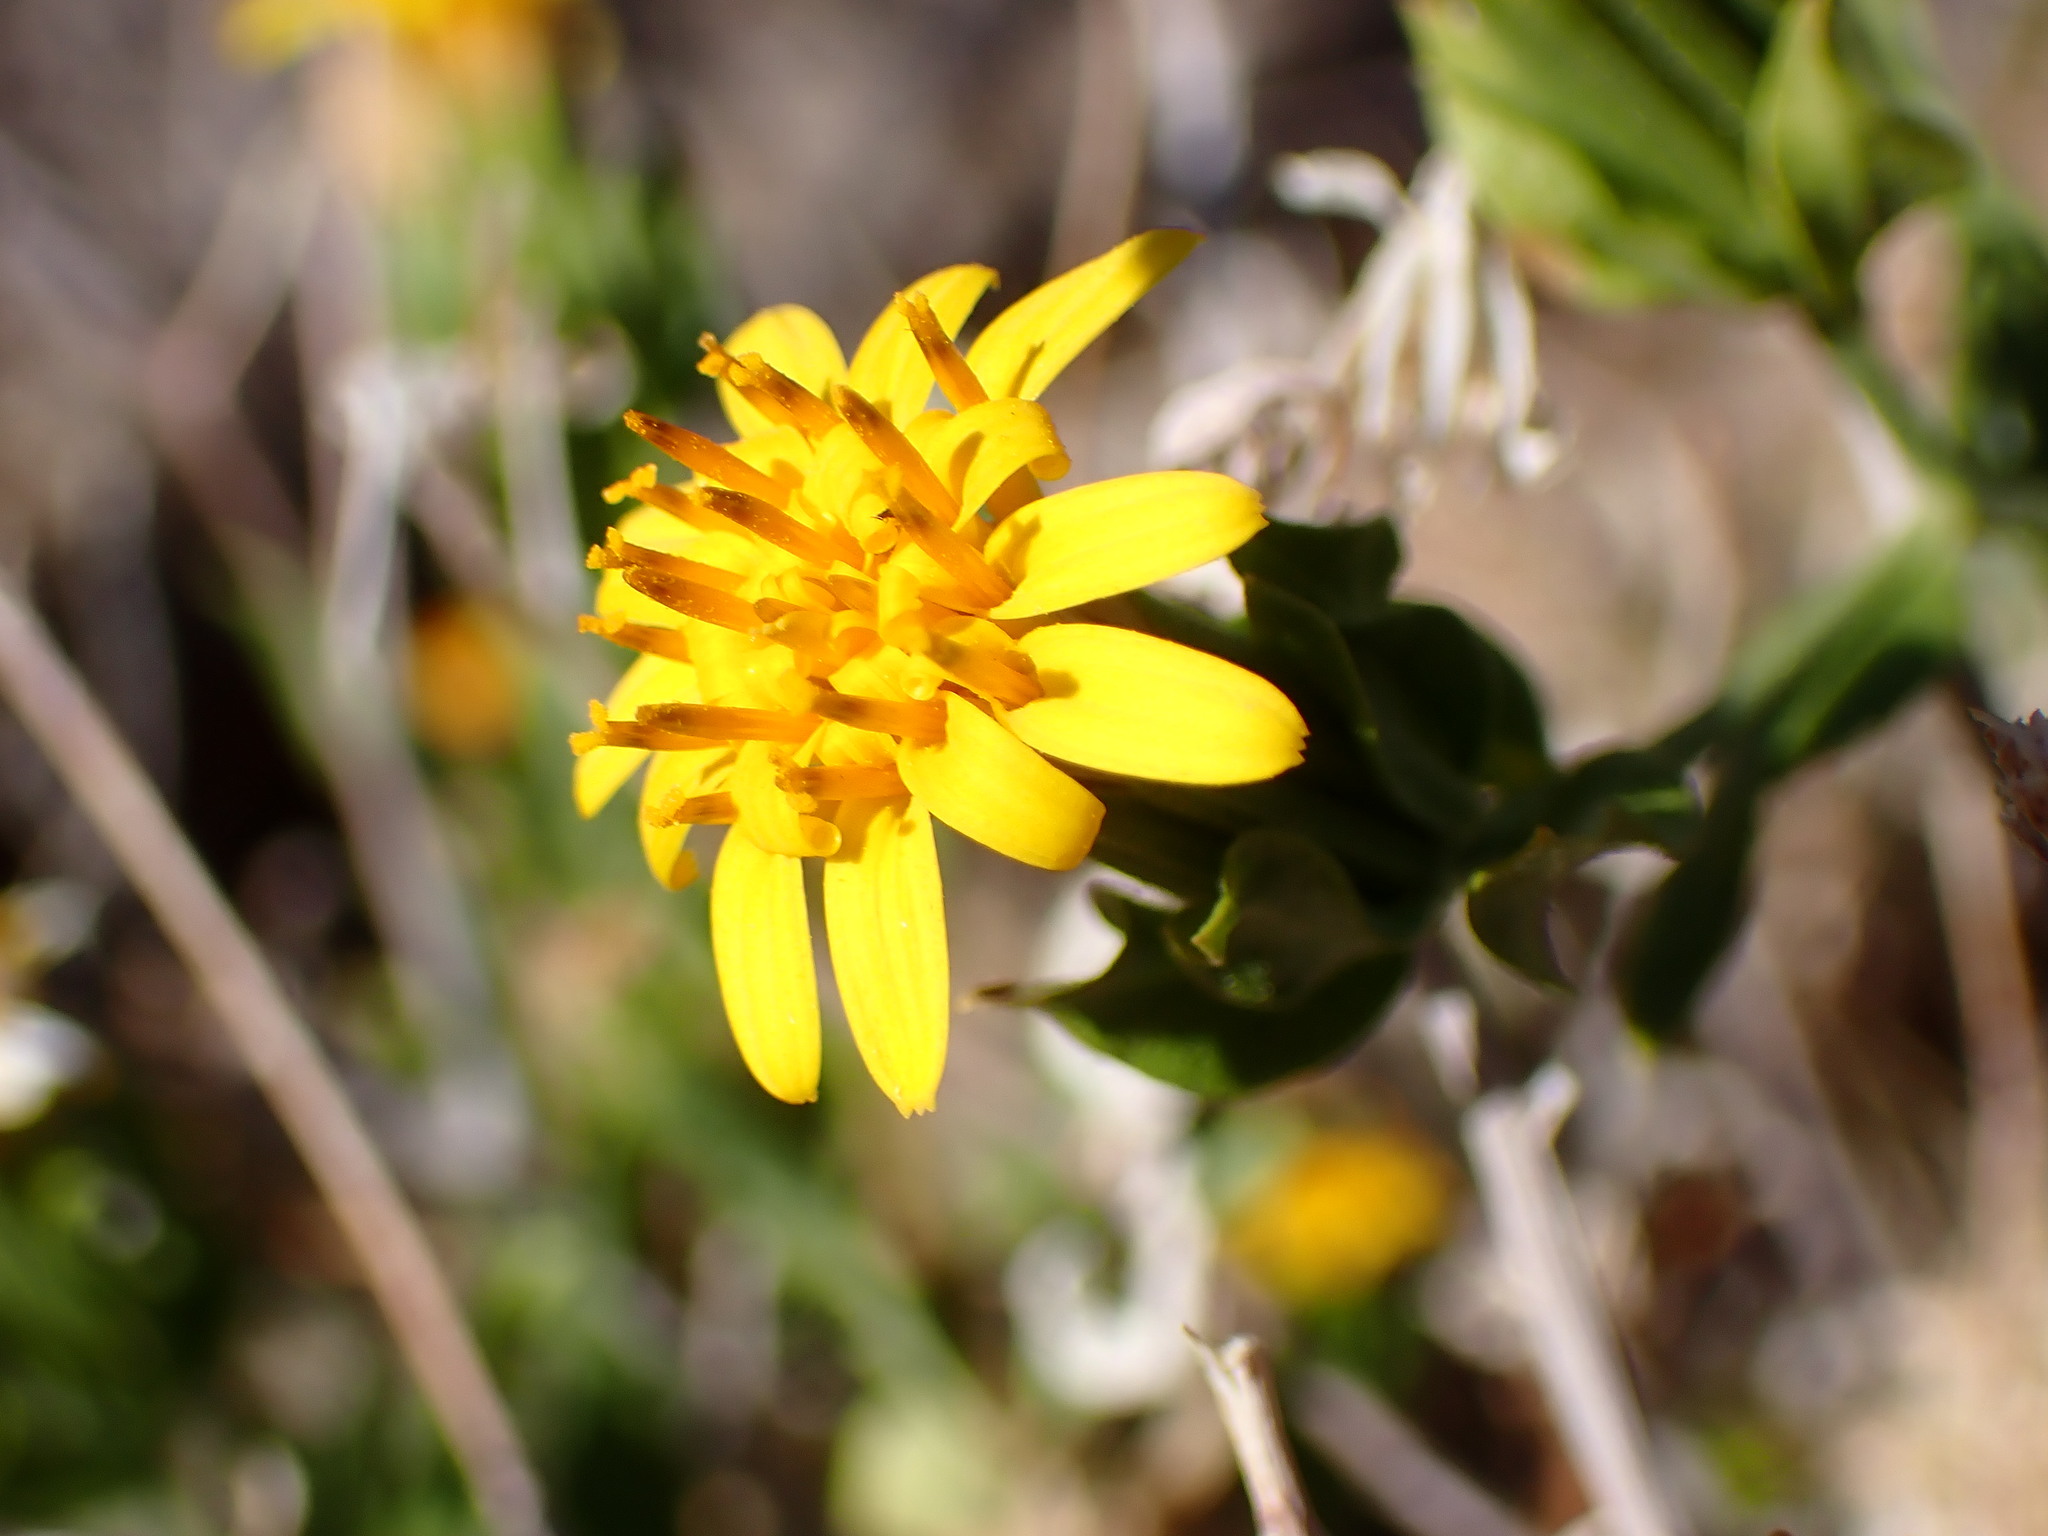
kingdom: Plantae
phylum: Tracheophyta
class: Magnoliopsida
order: Asterales
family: Asteraceae
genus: Trixis
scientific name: Trixis californica
